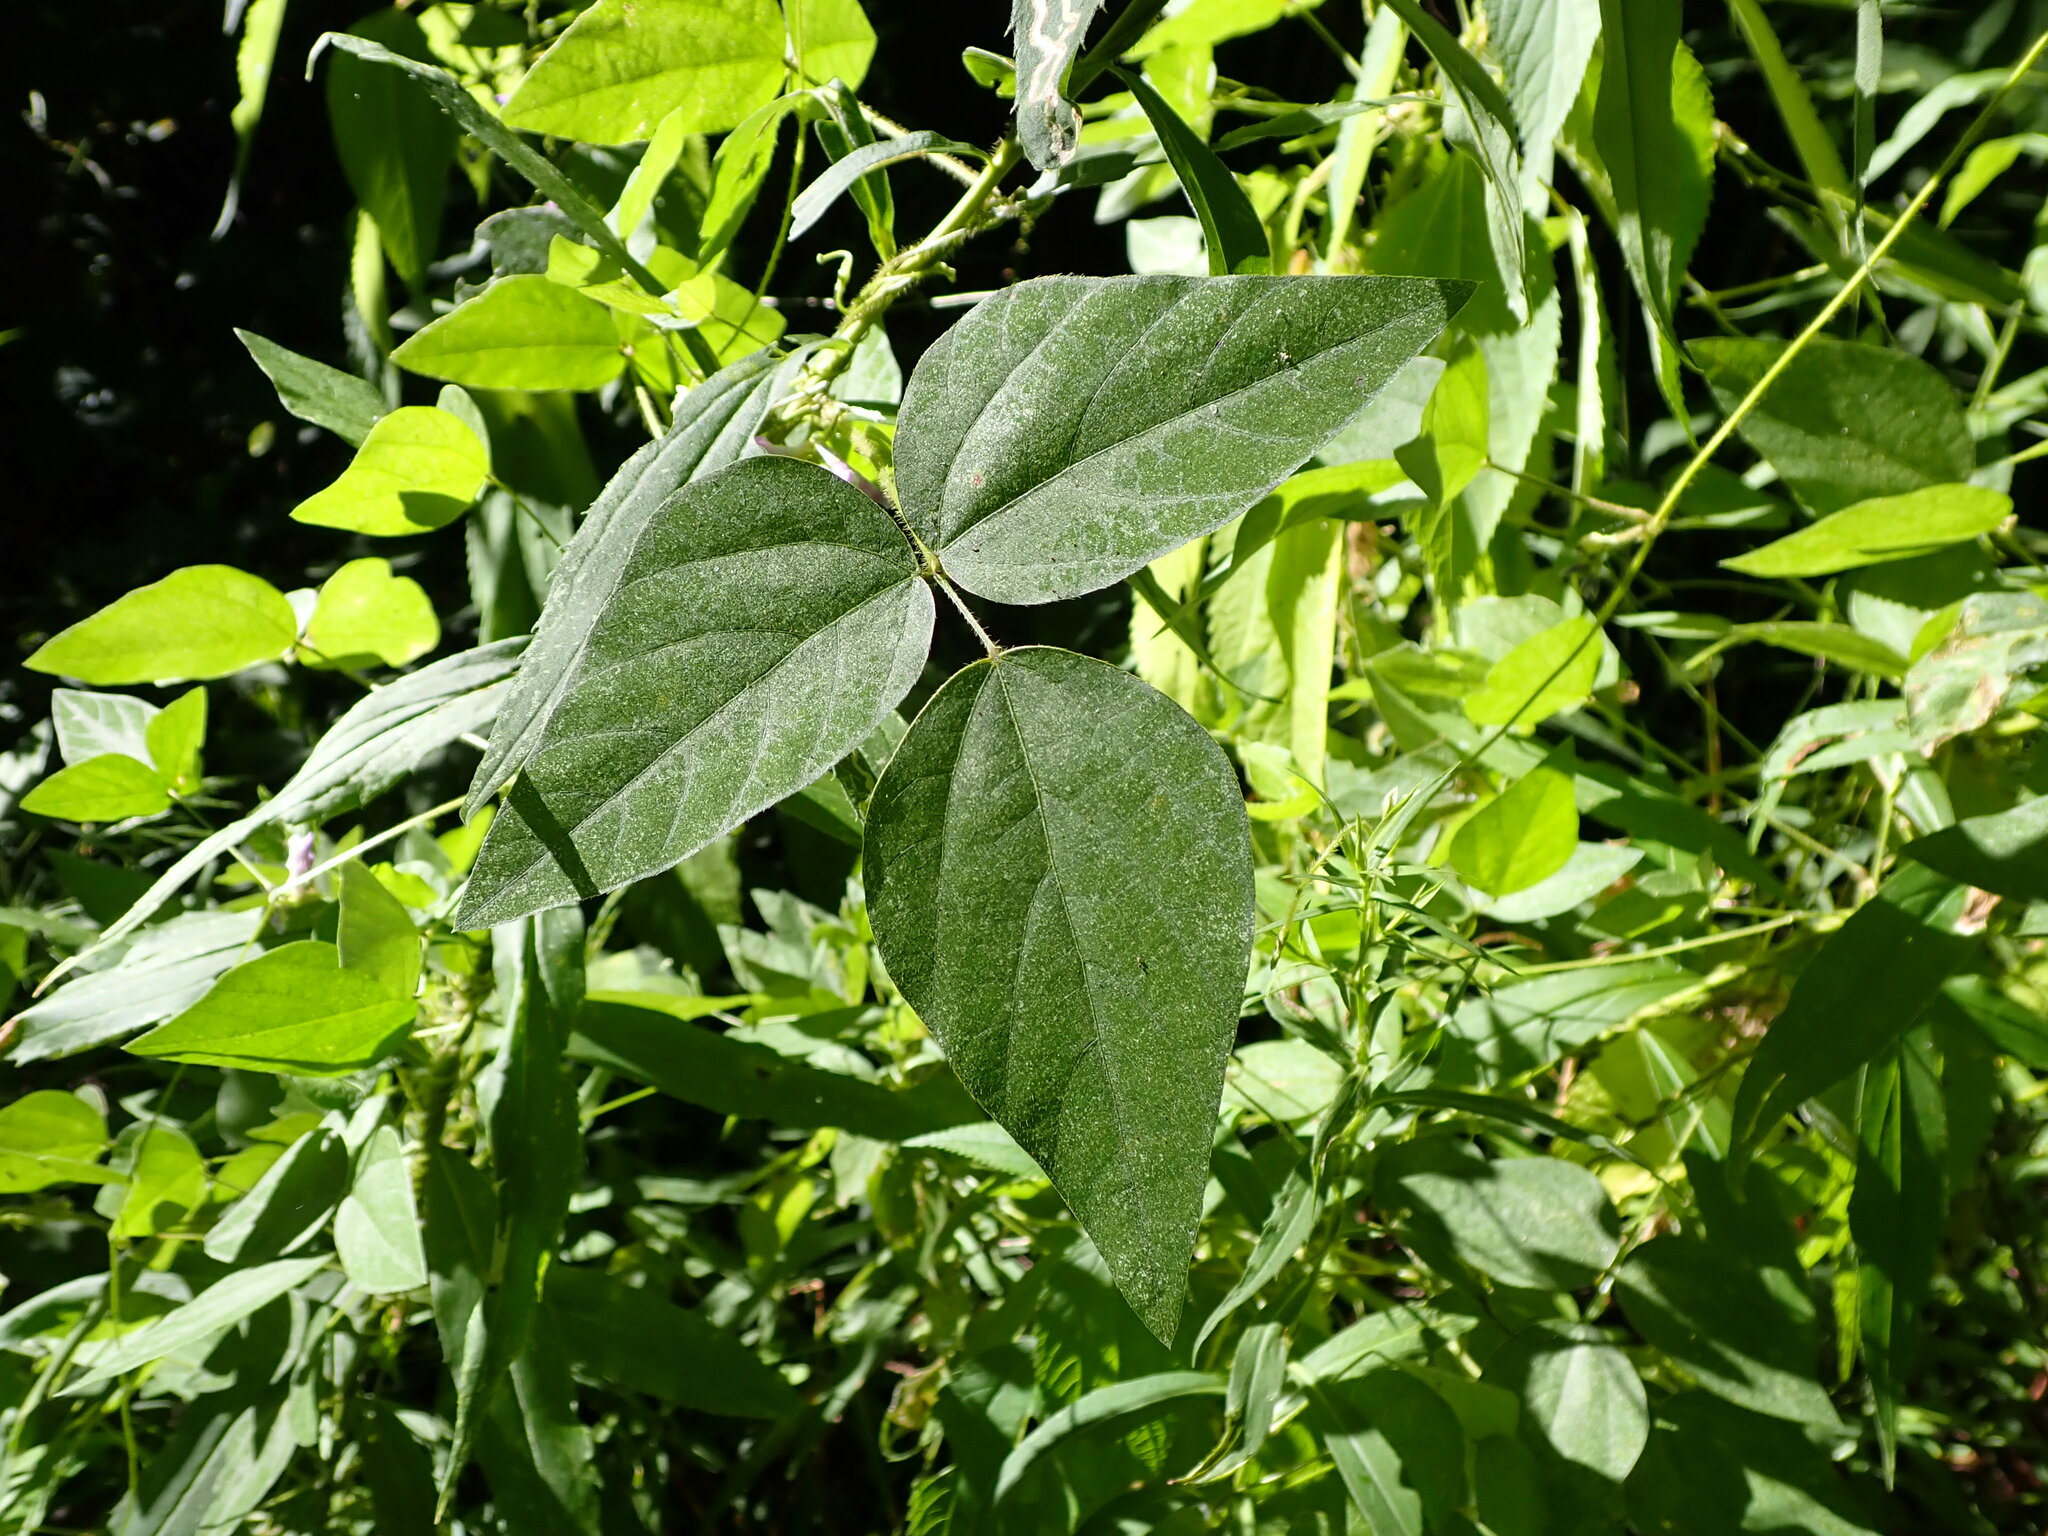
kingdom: Plantae
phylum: Tracheophyta
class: Magnoliopsida
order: Fabales
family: Fabaceae
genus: Amphicarpaea
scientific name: Amphicarpaea bracteata
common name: American hog peanut
